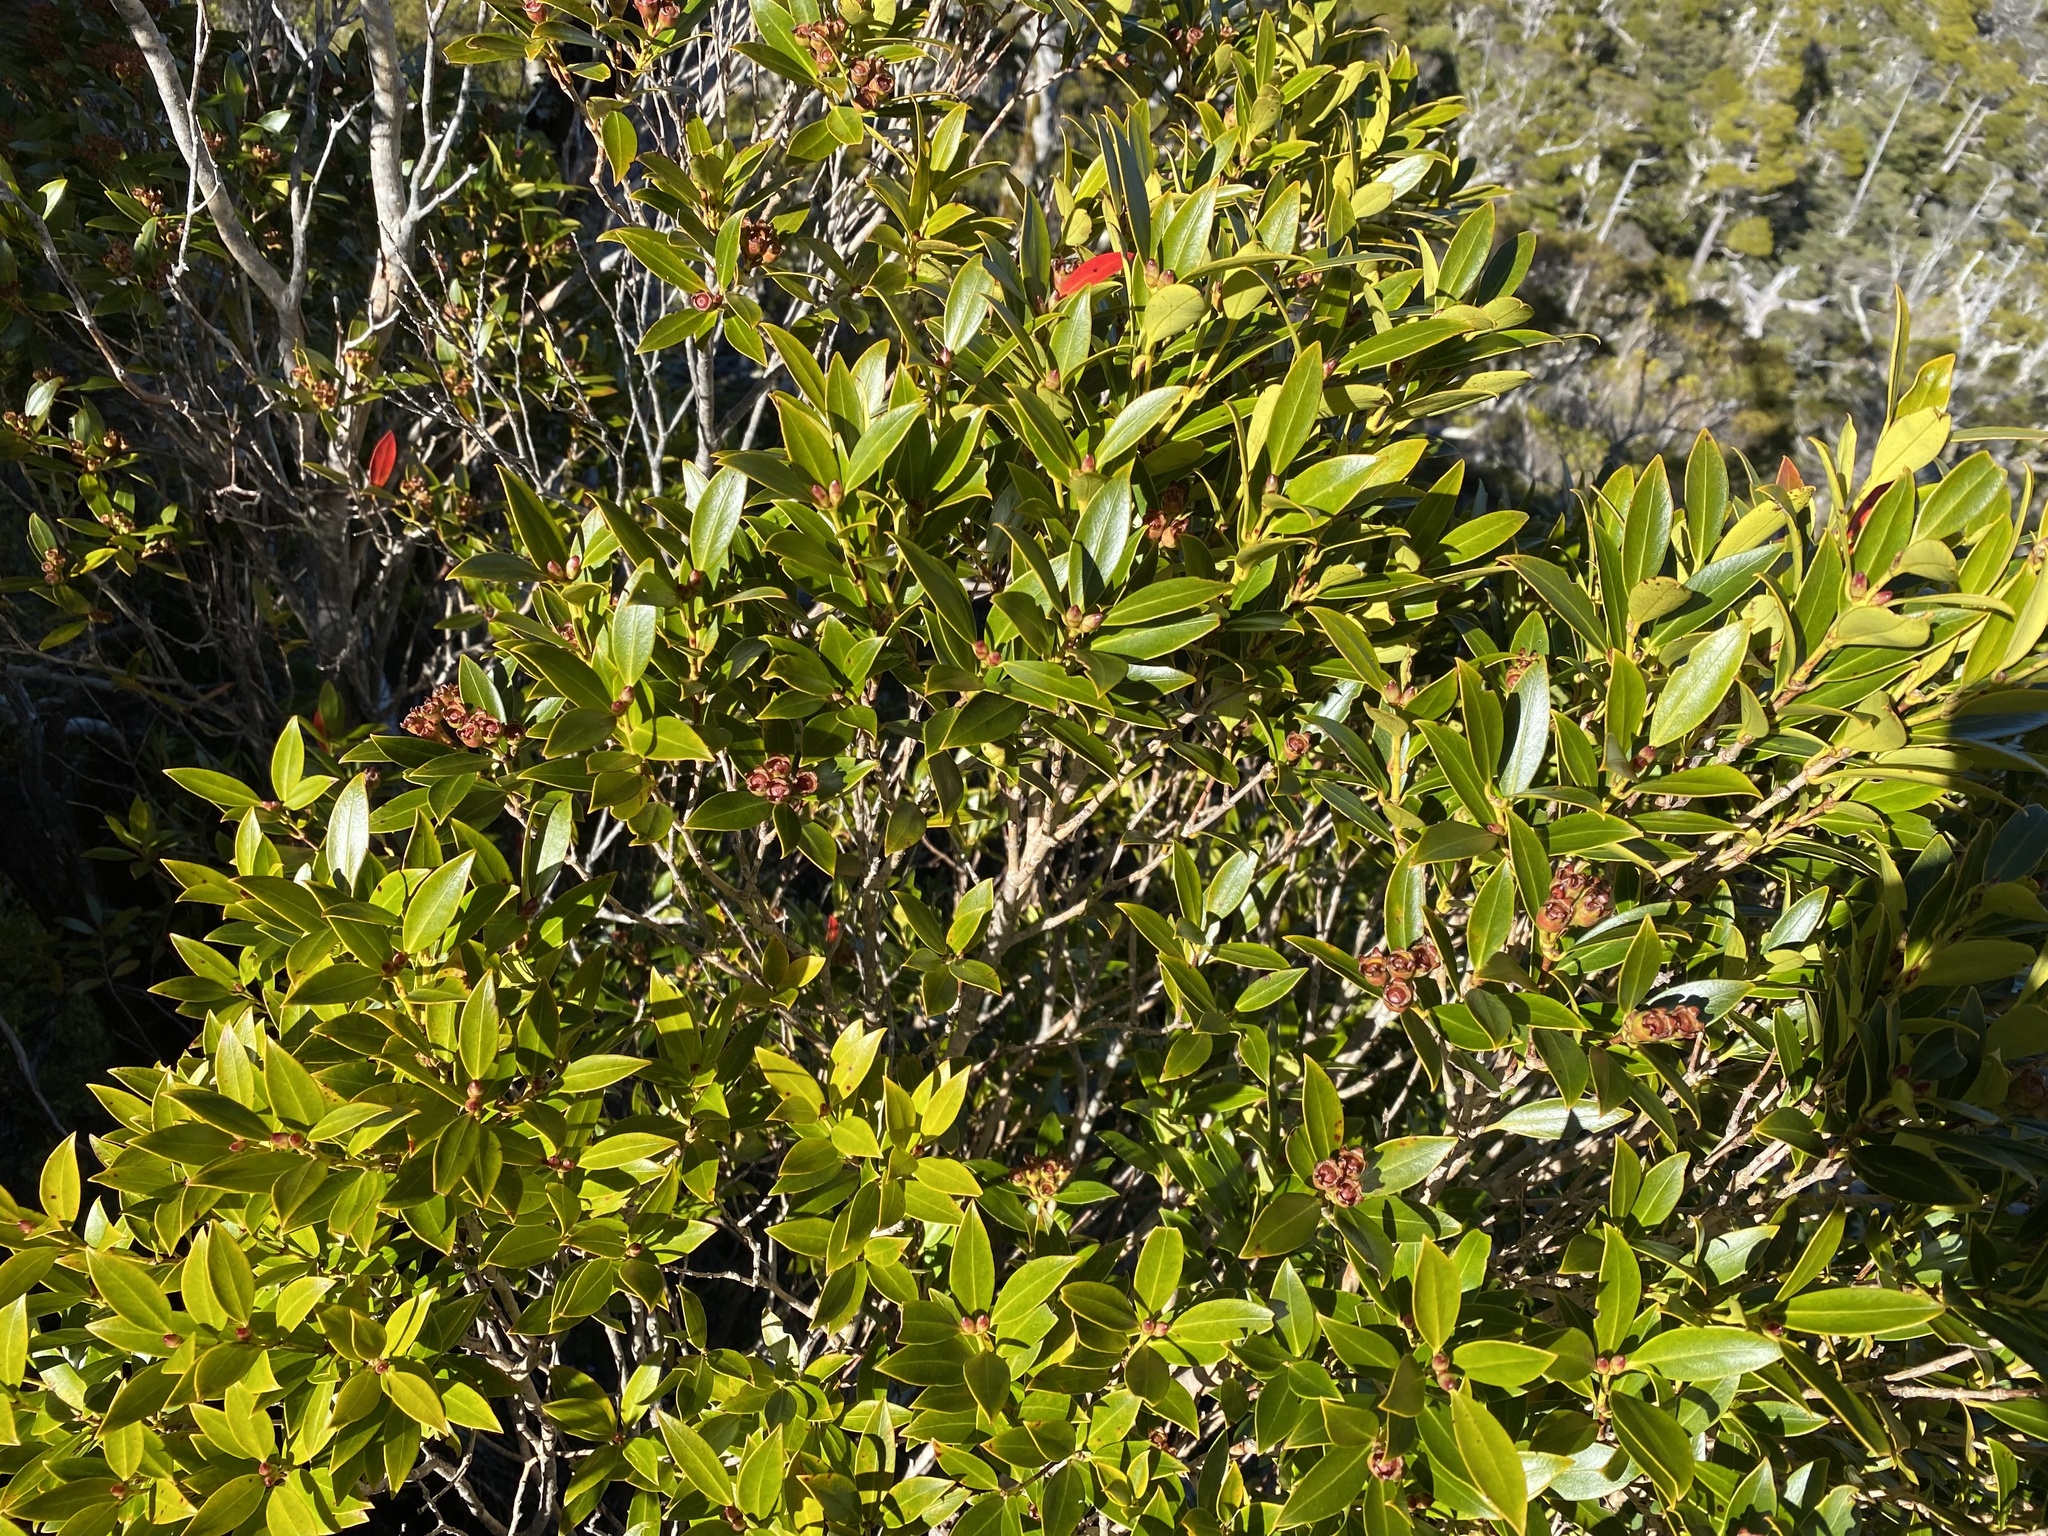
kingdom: Plantae
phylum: Tracheophyta
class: Magnoliopsida
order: Myrtales
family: Myrtaceae
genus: Metrosideros
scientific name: Metrosideros umbellata
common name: Southern rata
